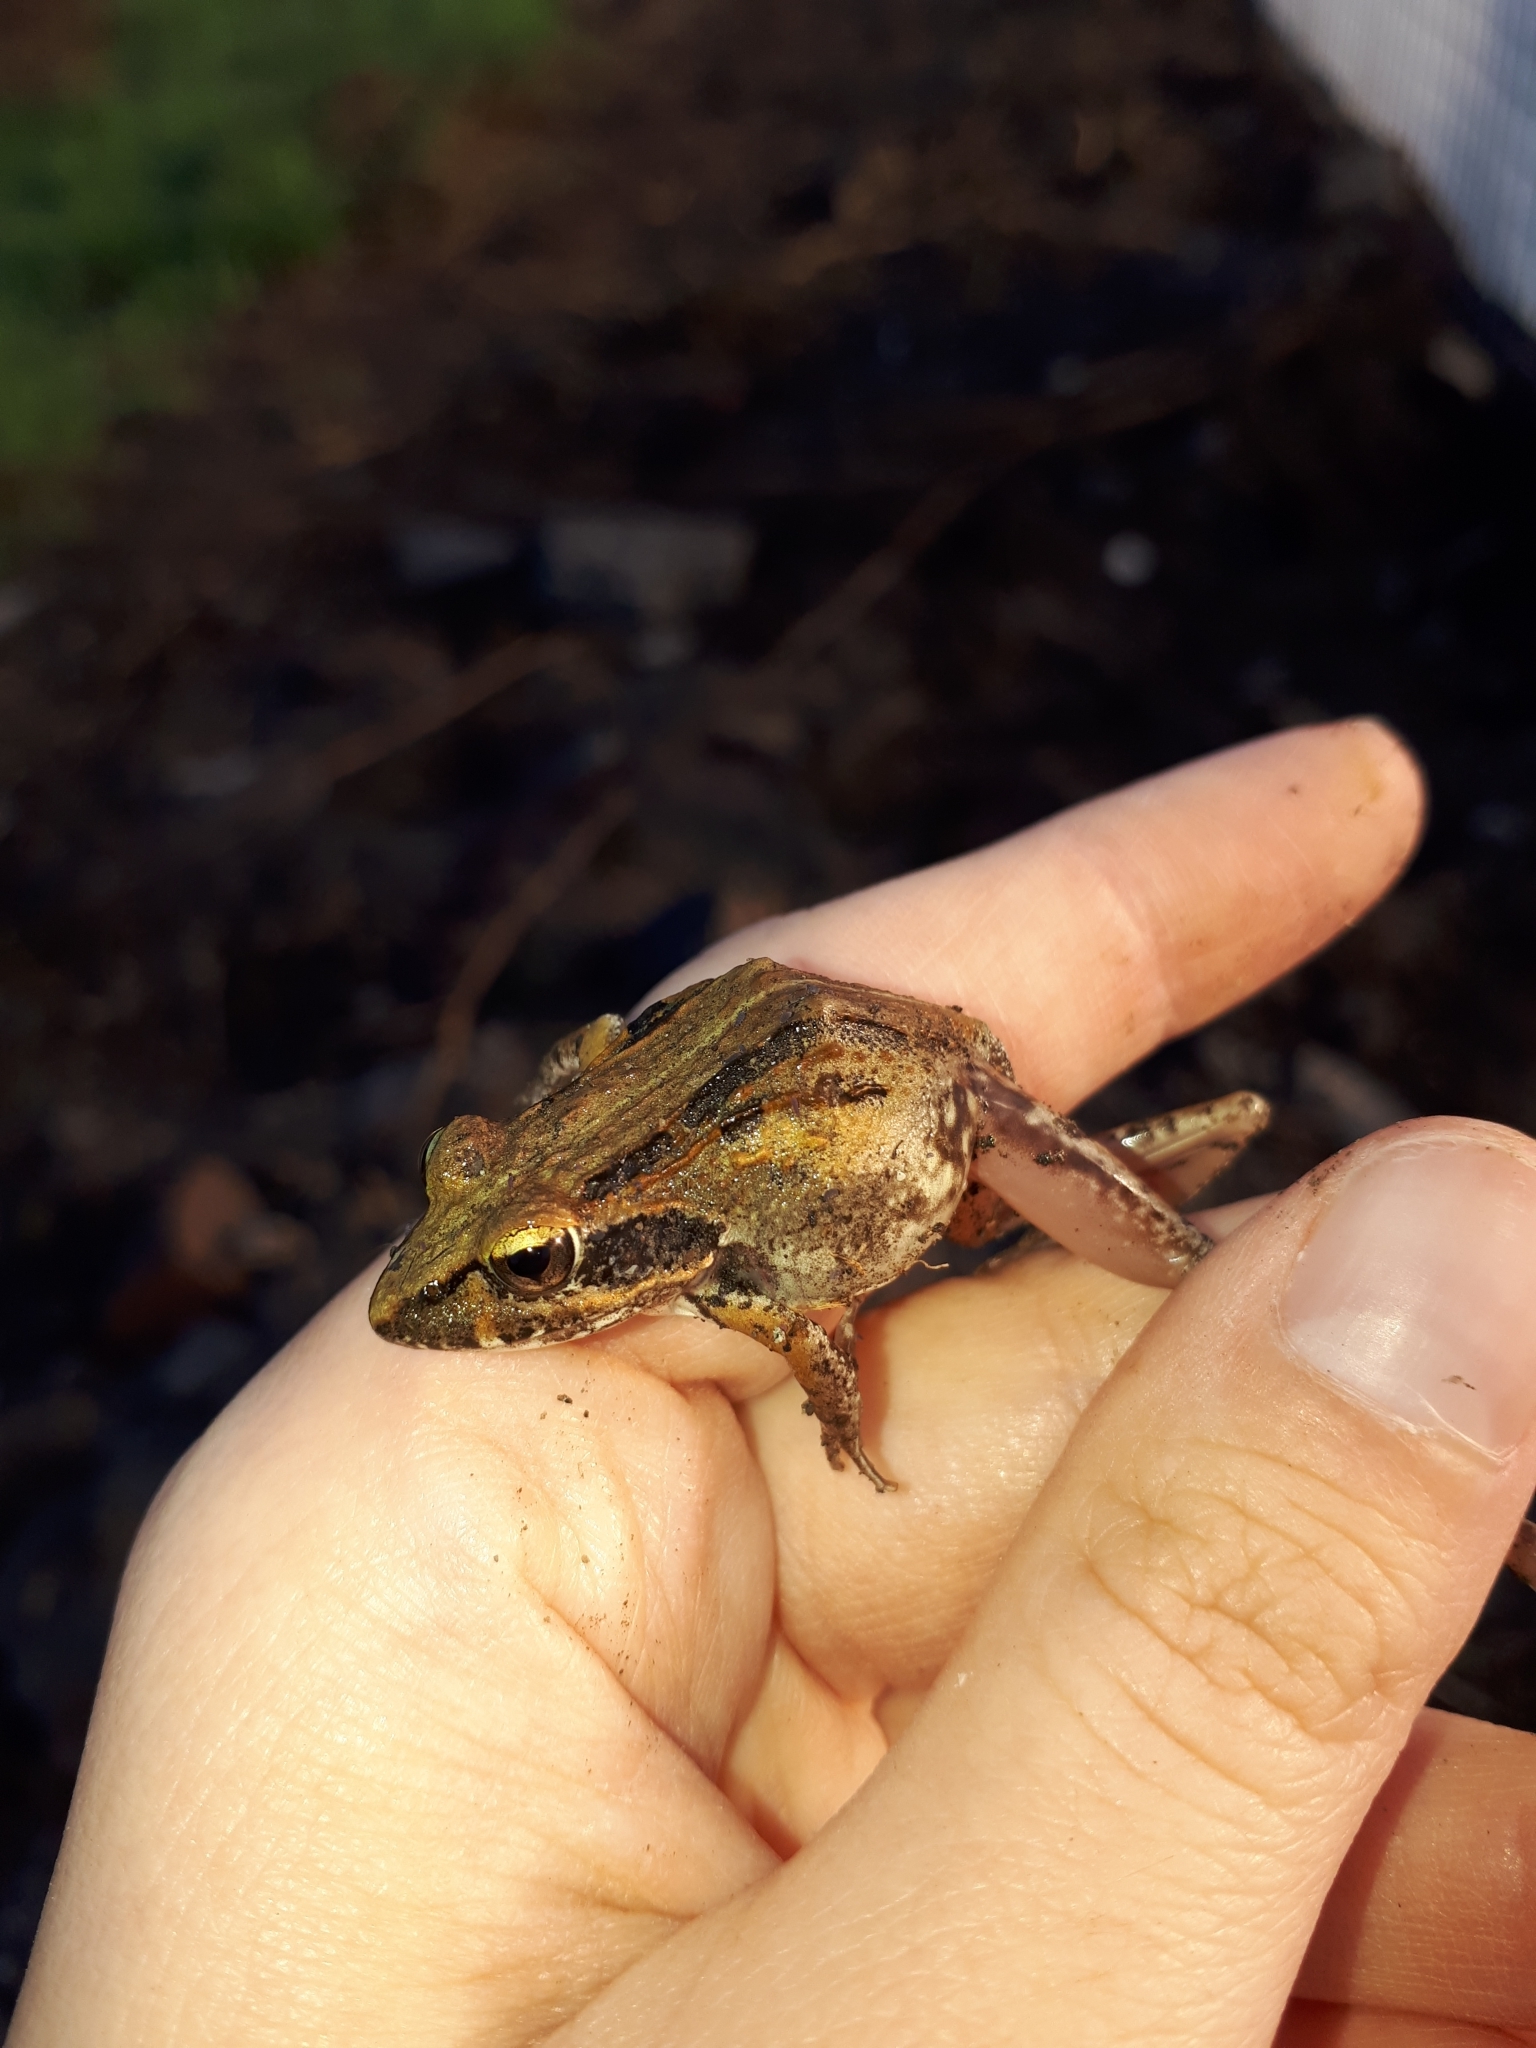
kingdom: Animalia
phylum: Chordata
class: Amphibia
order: Anura
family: Pyxicephalidae
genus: Strongylopus
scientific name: Strongylopus grayii
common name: Gray's stream frog
